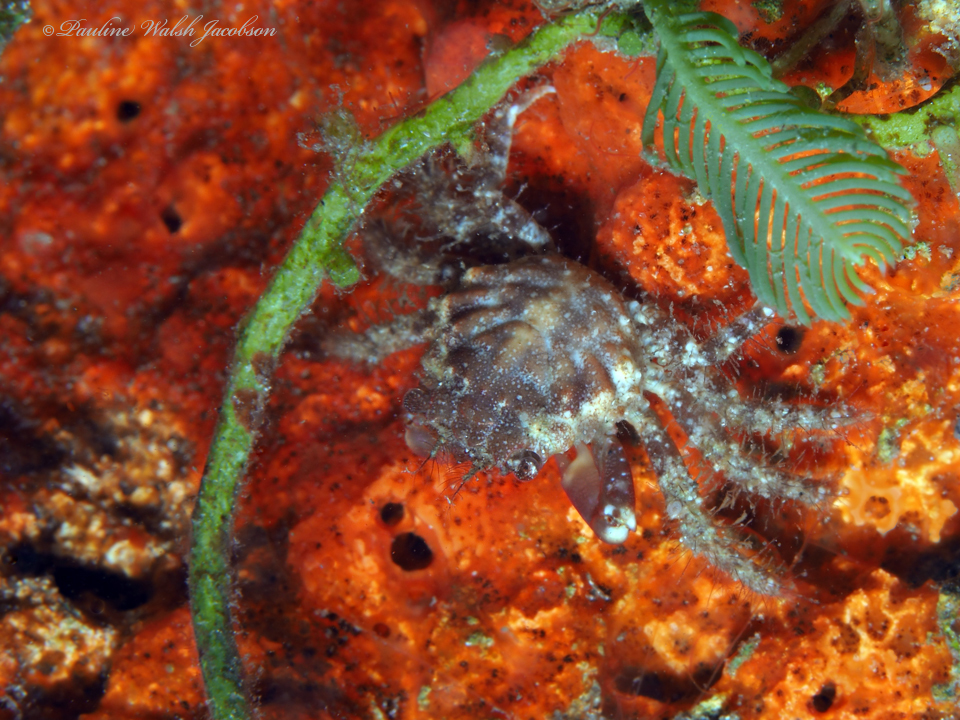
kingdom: Animalia
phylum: Arthropoda
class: Malacostraca
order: Decapoda
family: Mithracidae
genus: Mithraculus
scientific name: Mithraculus forceps
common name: Red-ridged clinging crab
